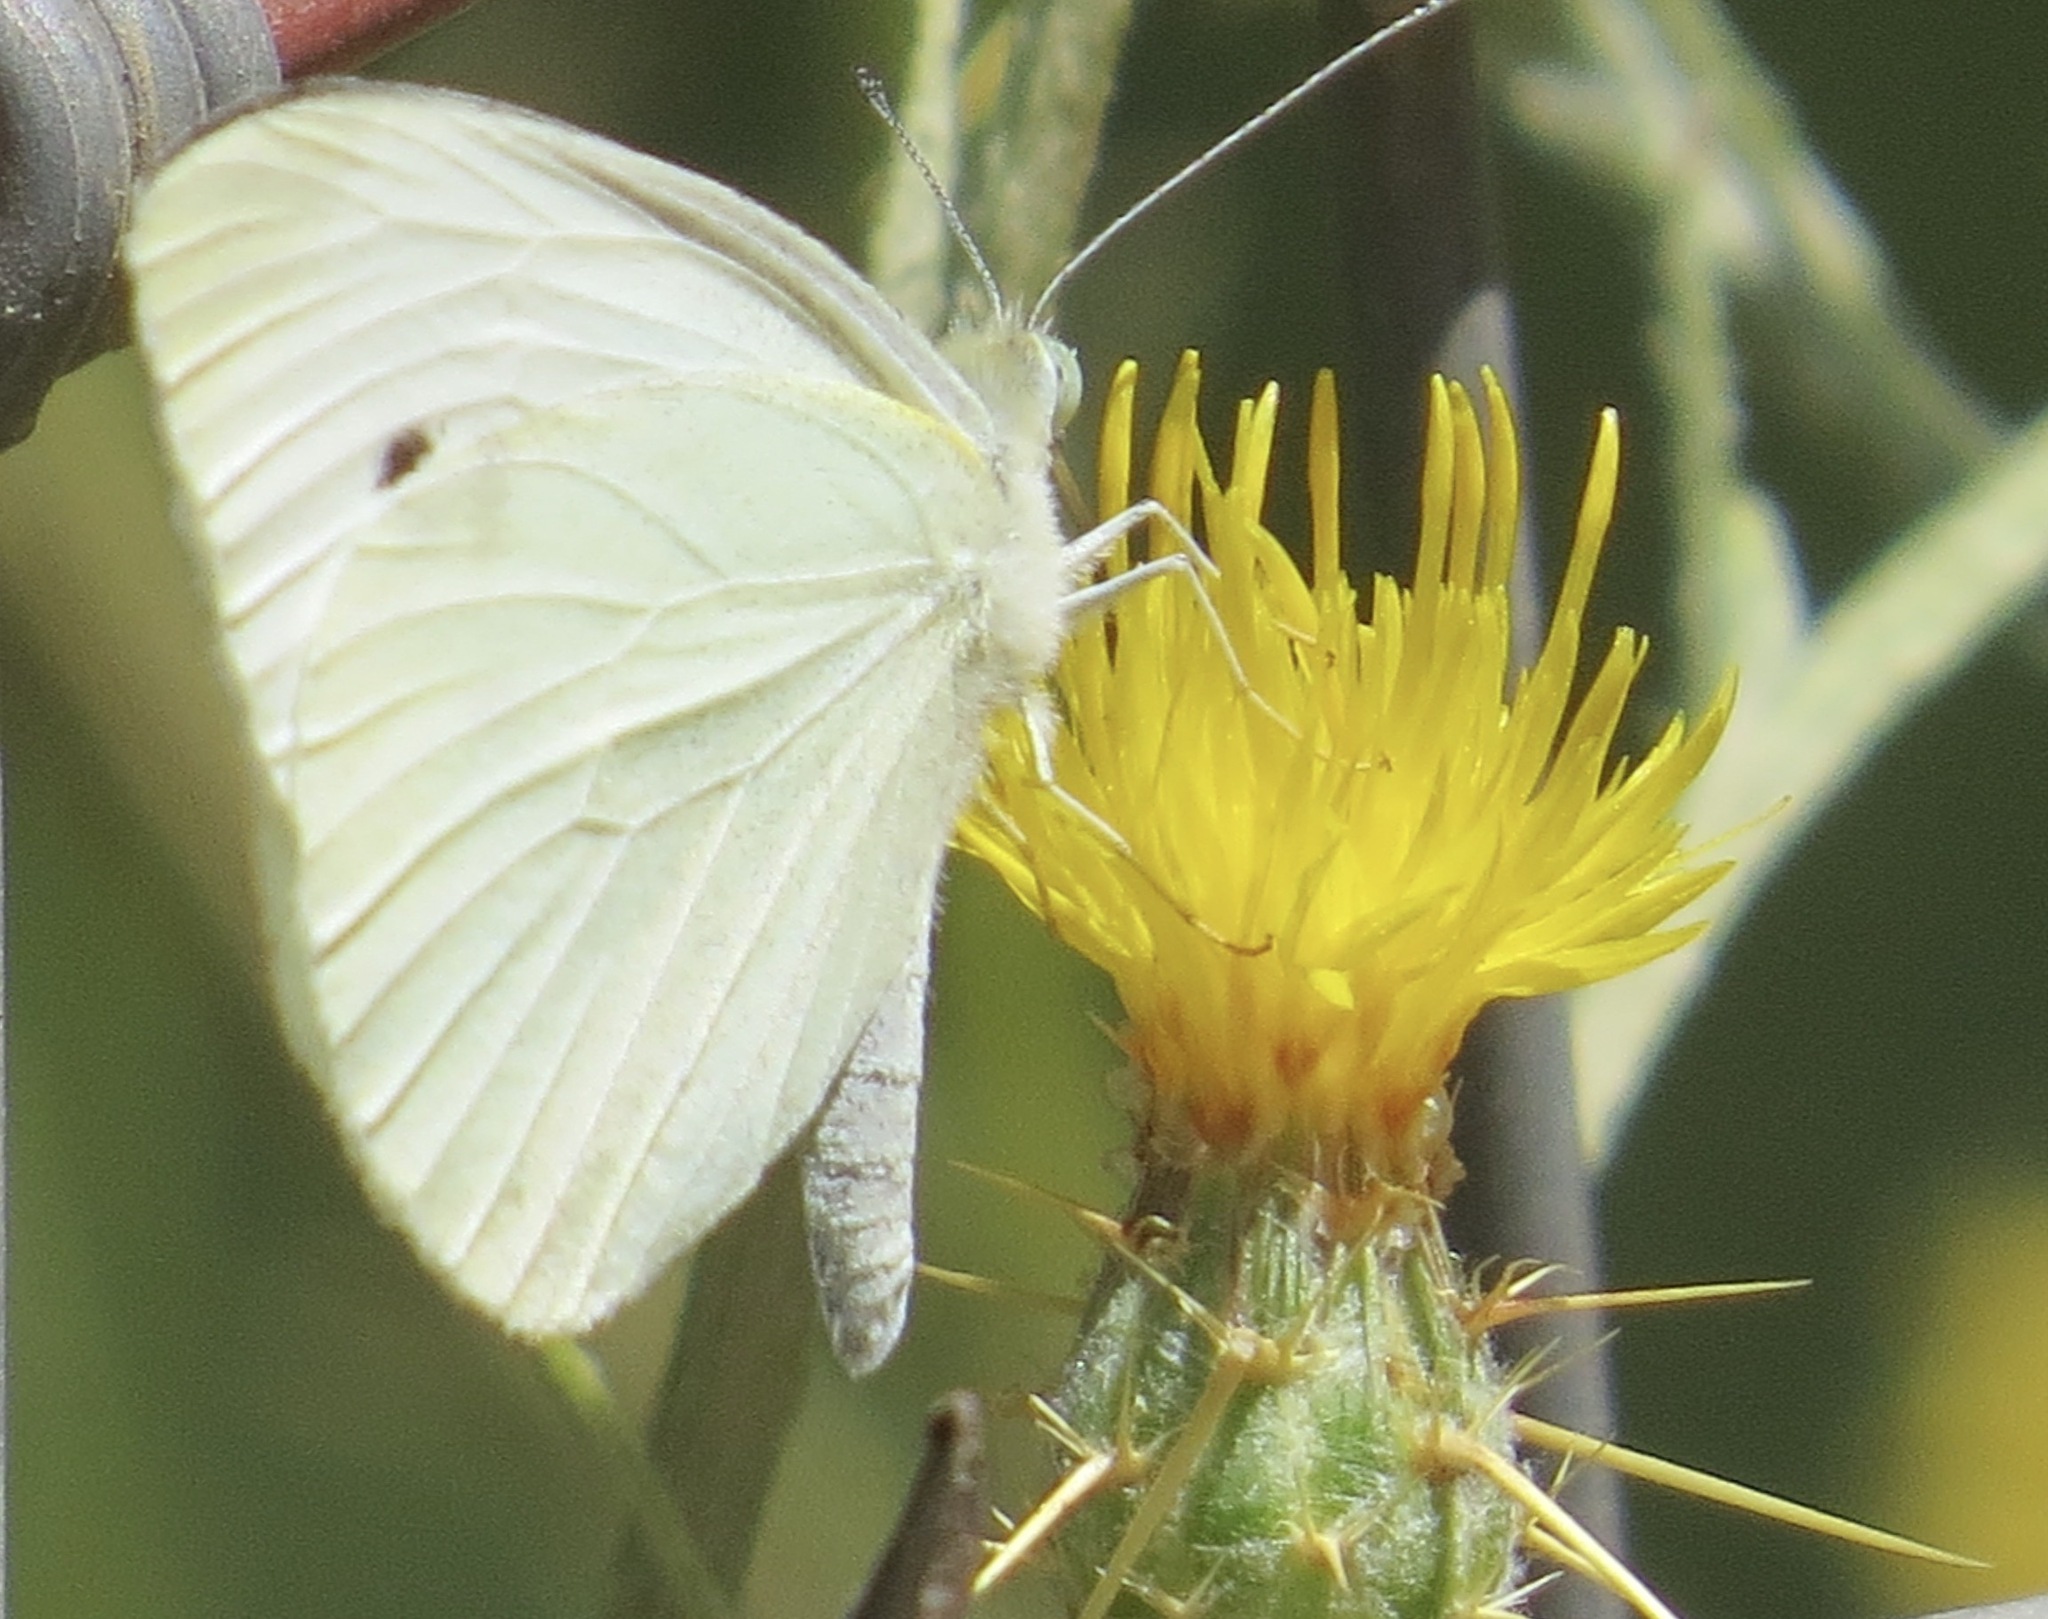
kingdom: Animalia
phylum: Arthropoda
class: Insecta
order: Lepidoptera
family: Pieridae
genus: Pieris
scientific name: Pieris rapae
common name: Small white
